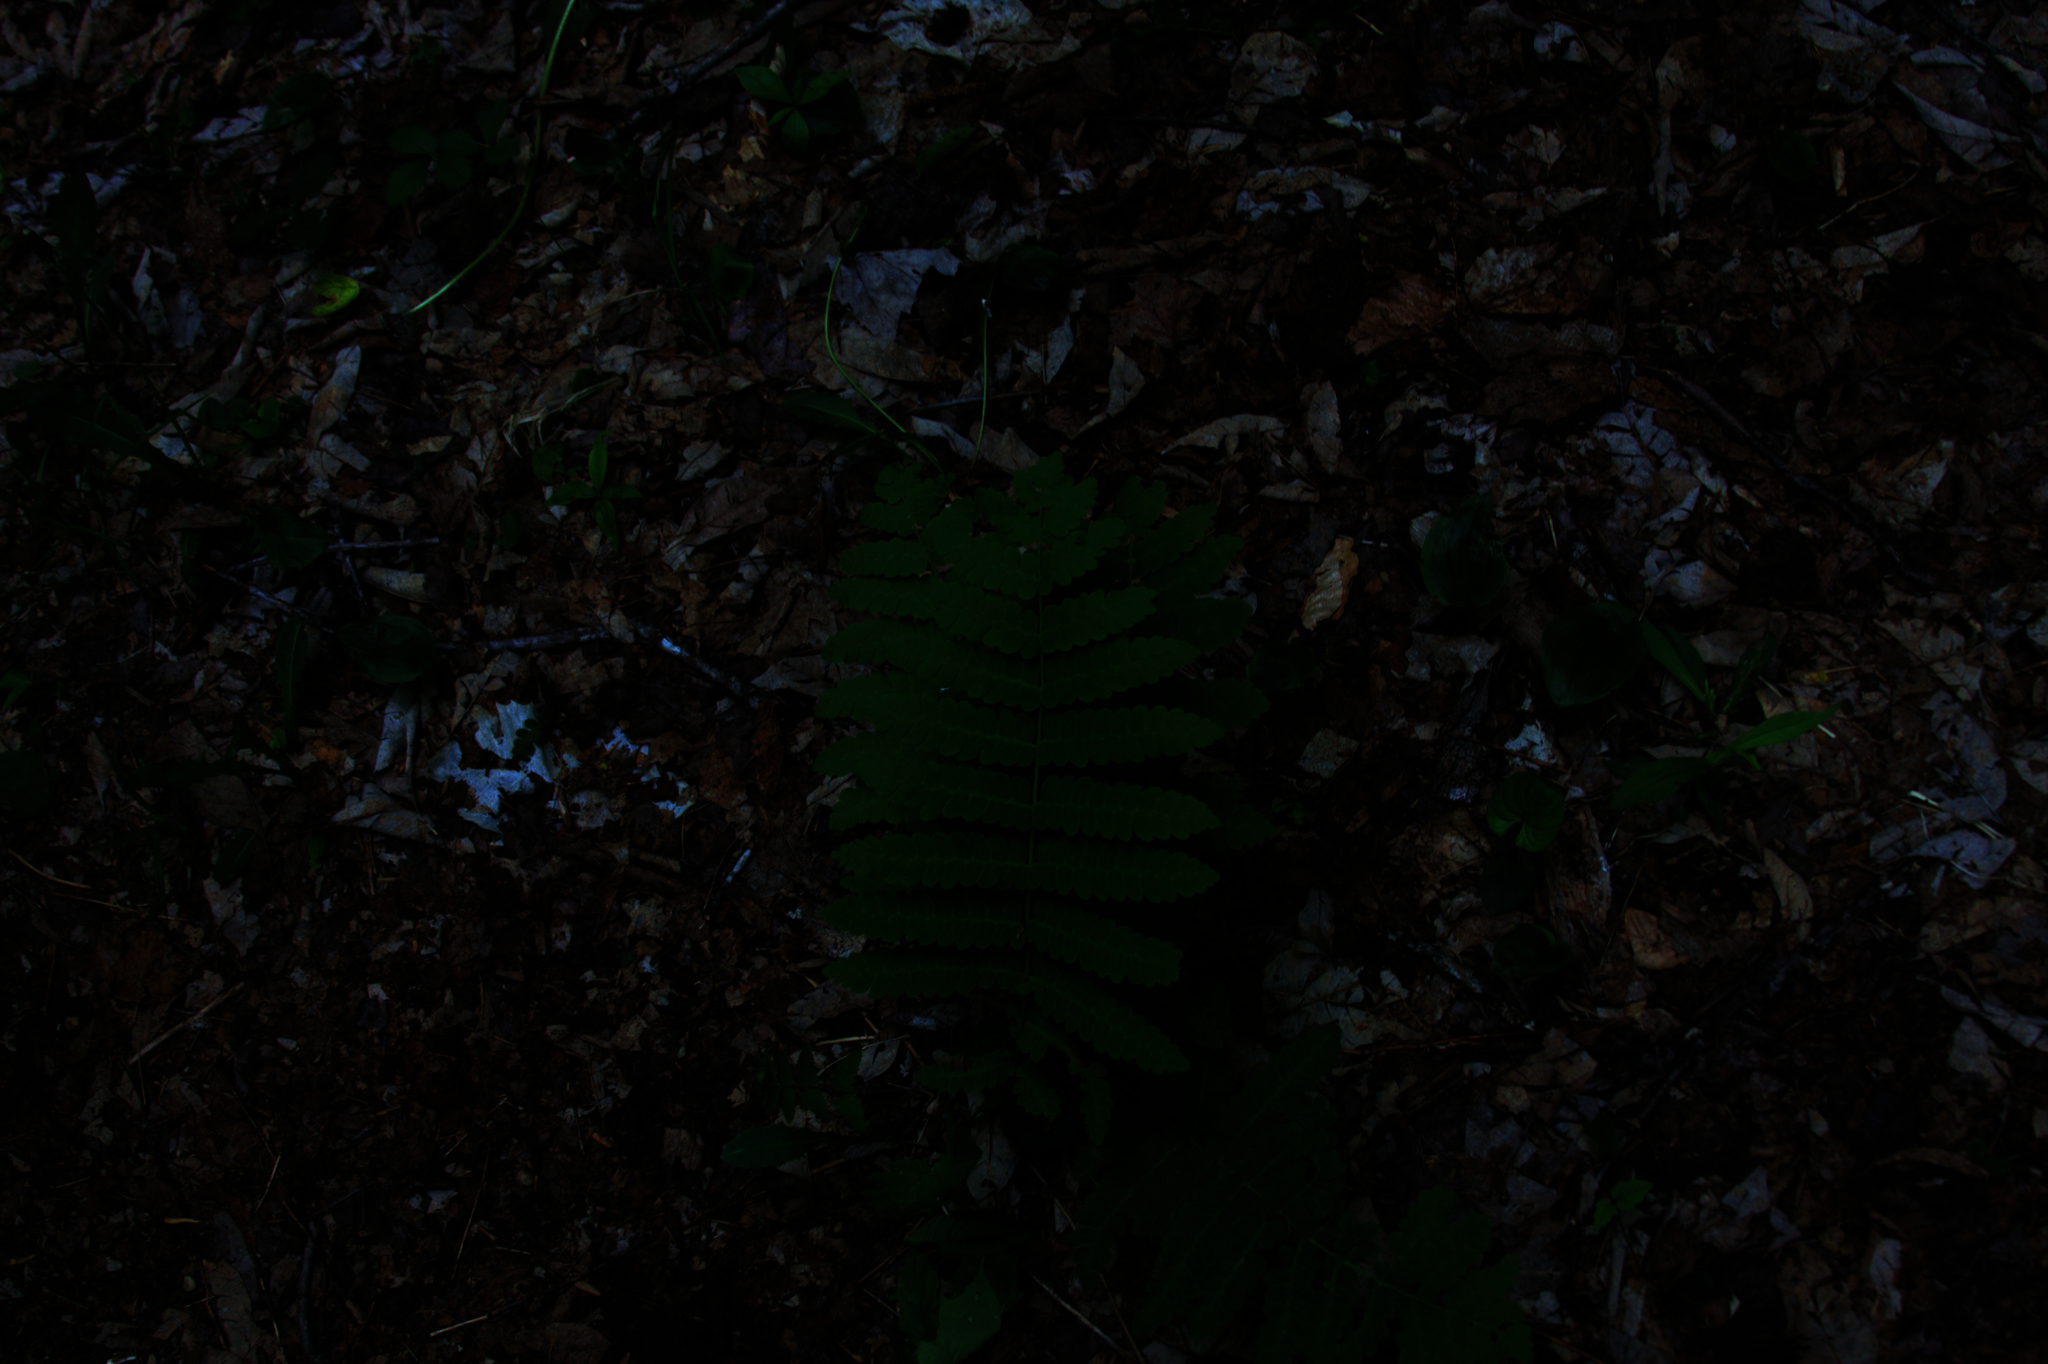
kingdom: Plantae
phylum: Tracheophyta
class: Polypodiopsida
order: Osmundales
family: Osmundaceae
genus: Claytosmunda
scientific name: Claytosmunda claytoniana
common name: Clayton's fern
